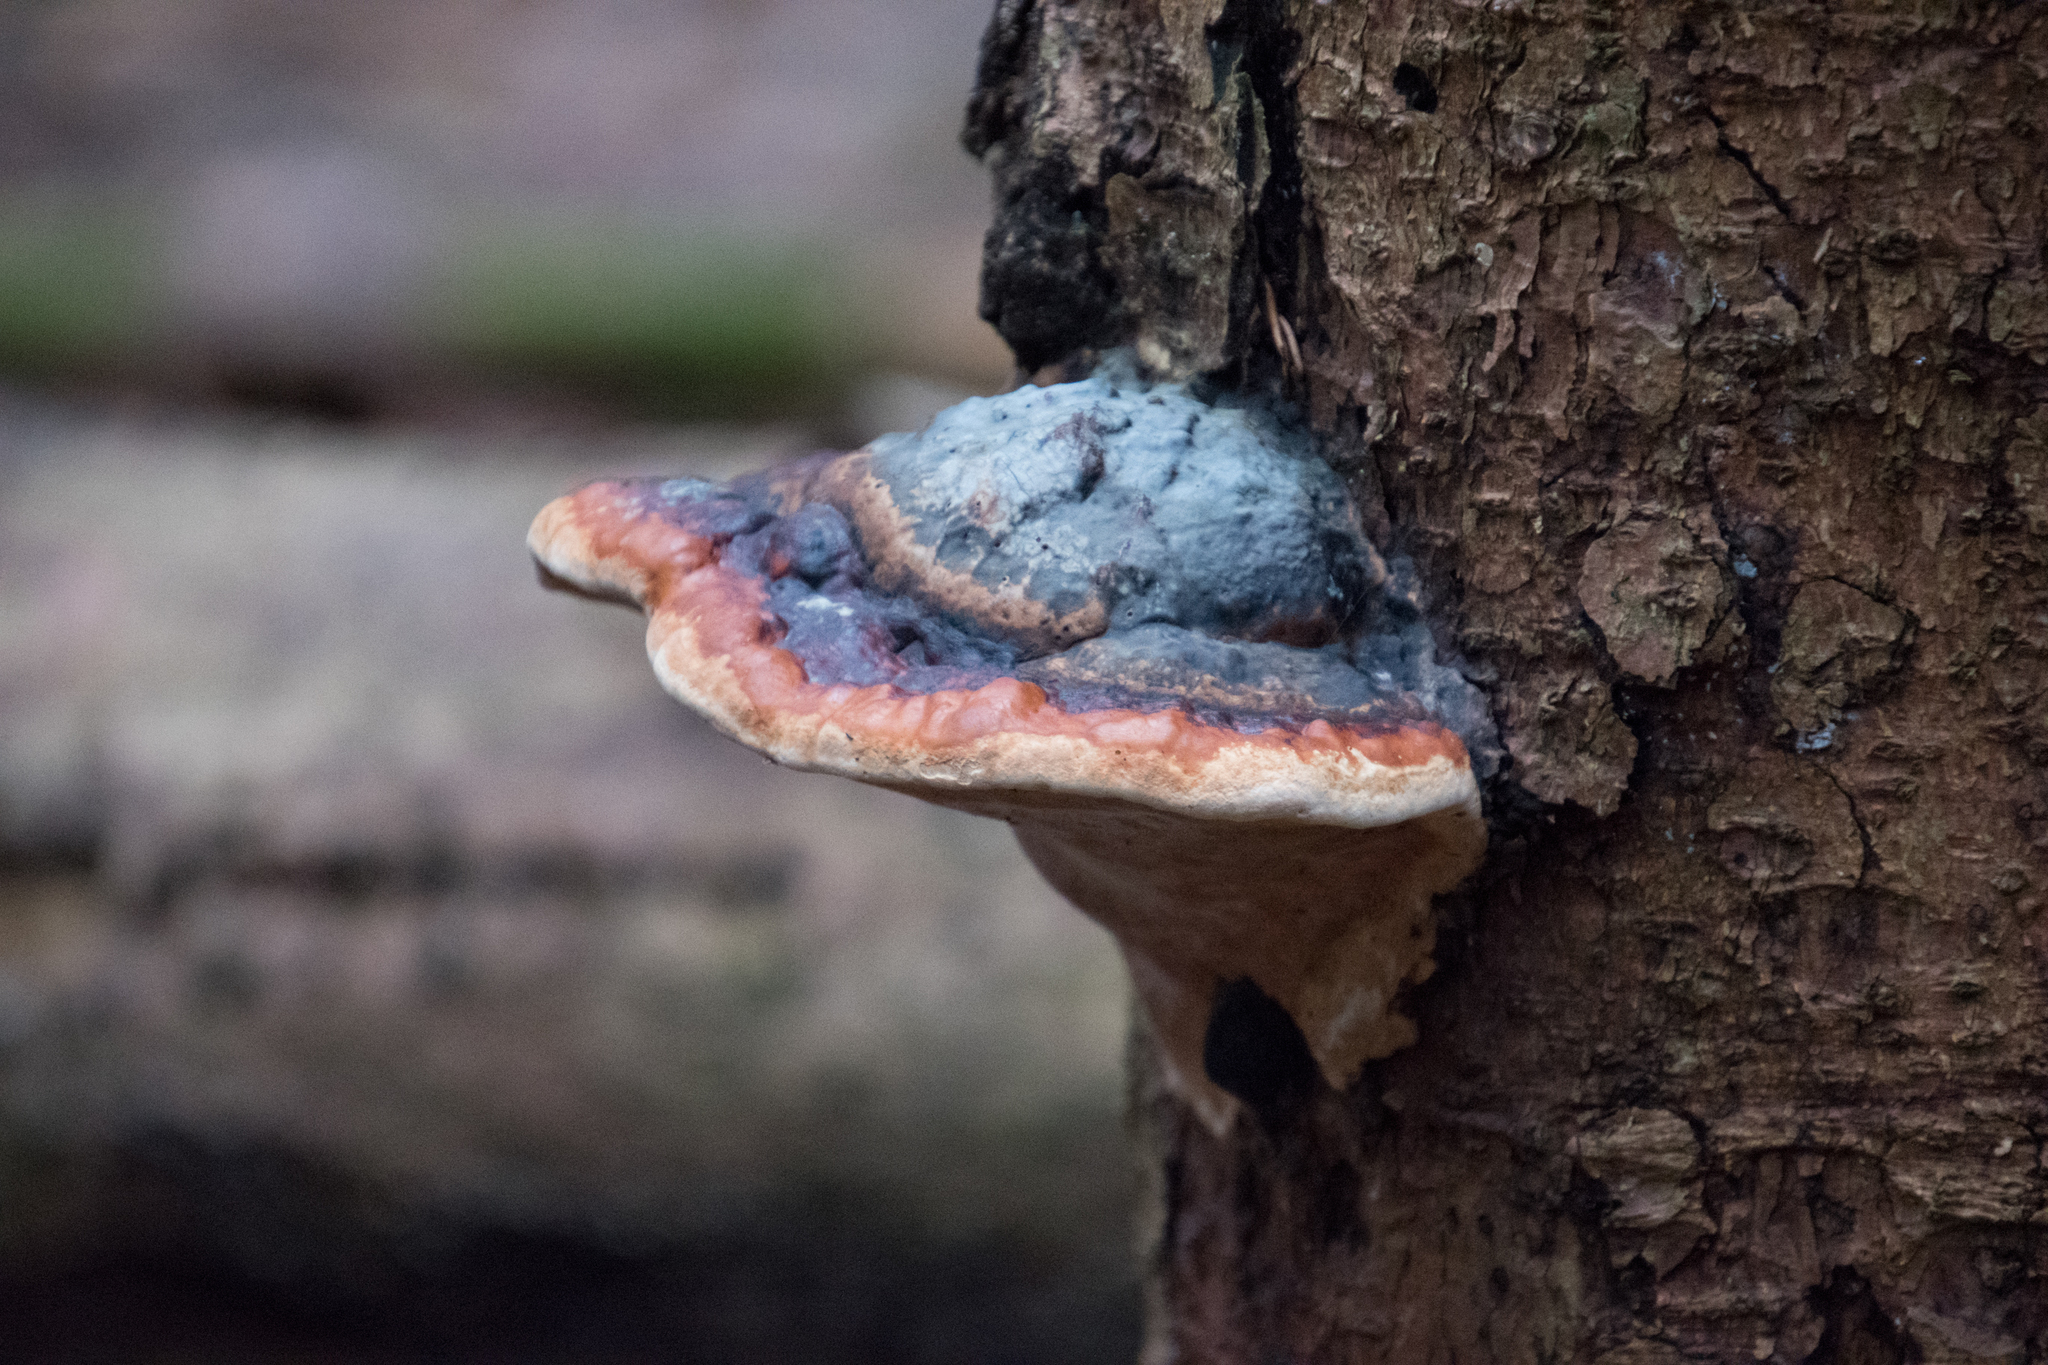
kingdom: Fungi
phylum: Basidiomycota
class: Agaricomycetes
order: Polyporales
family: Fomitopsidaceae
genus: Fomitopsis
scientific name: Fomitopsis pinicola
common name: Red-belted bracket
